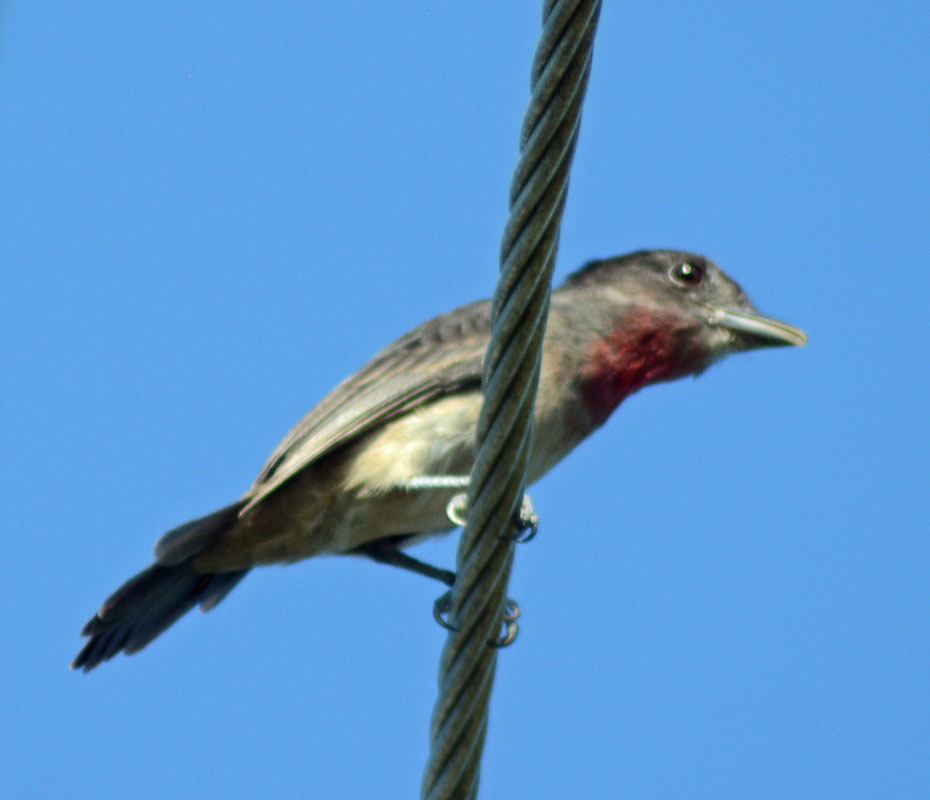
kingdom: Animalia
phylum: Chordata
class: Aves
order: Passeriformes
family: Cotingidae
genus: Pachyramphus
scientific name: Pachyramphus aglaiae
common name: Rose-throated becard
